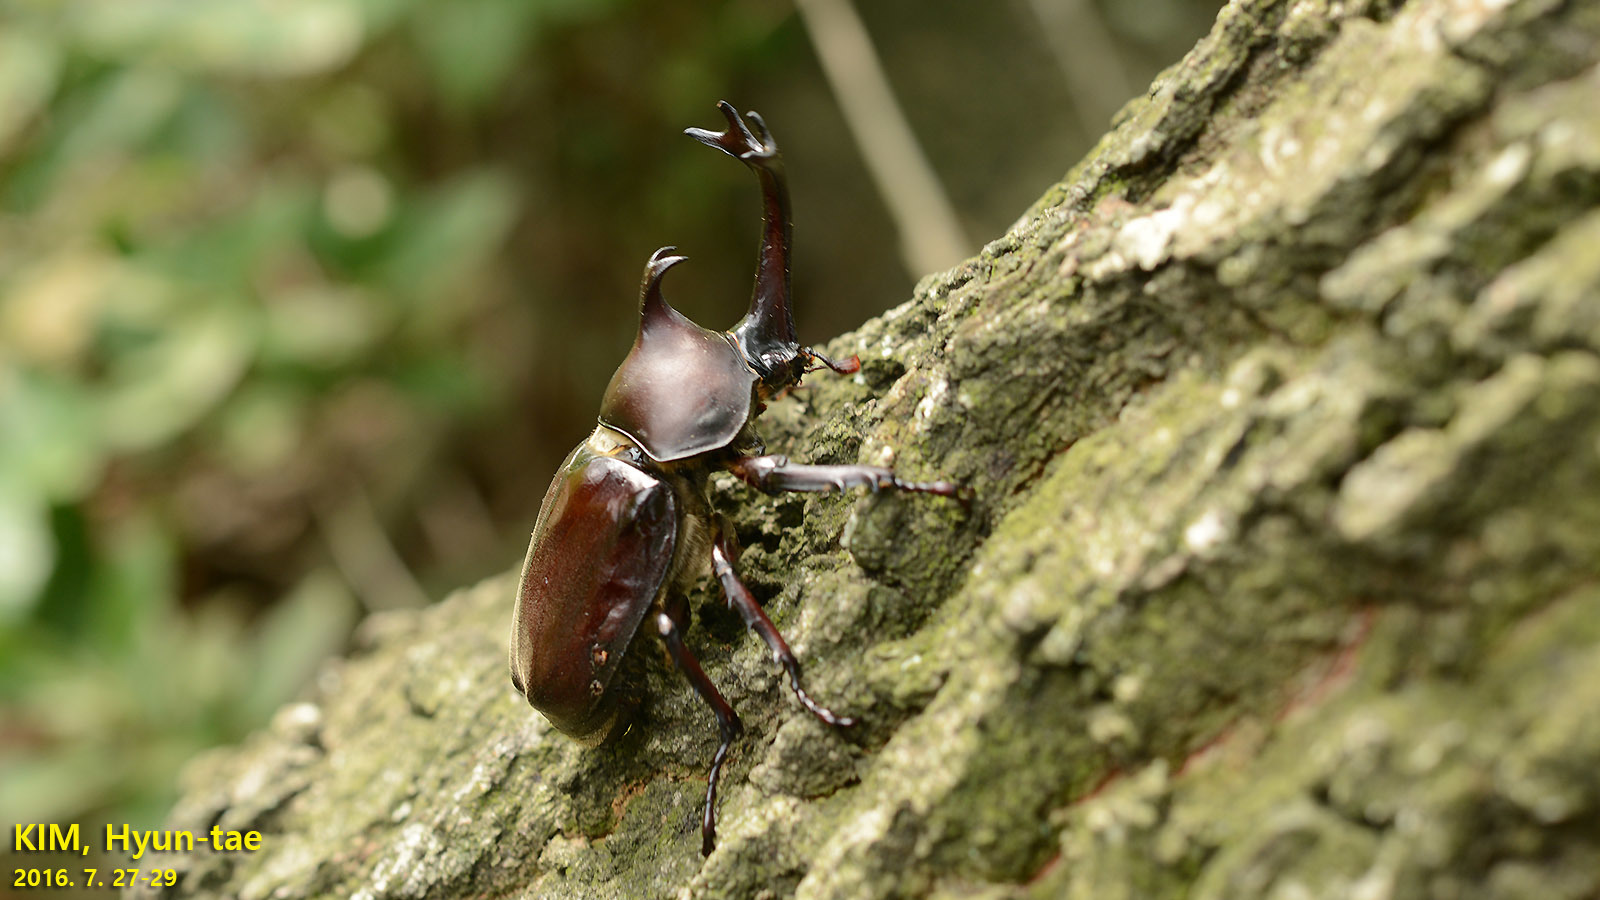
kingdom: Animalia
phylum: Arthropoda
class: Insecta
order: Coleoptera
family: Scarabaeidae
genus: Trypoxylus
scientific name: Trypoxylus dichotomus
